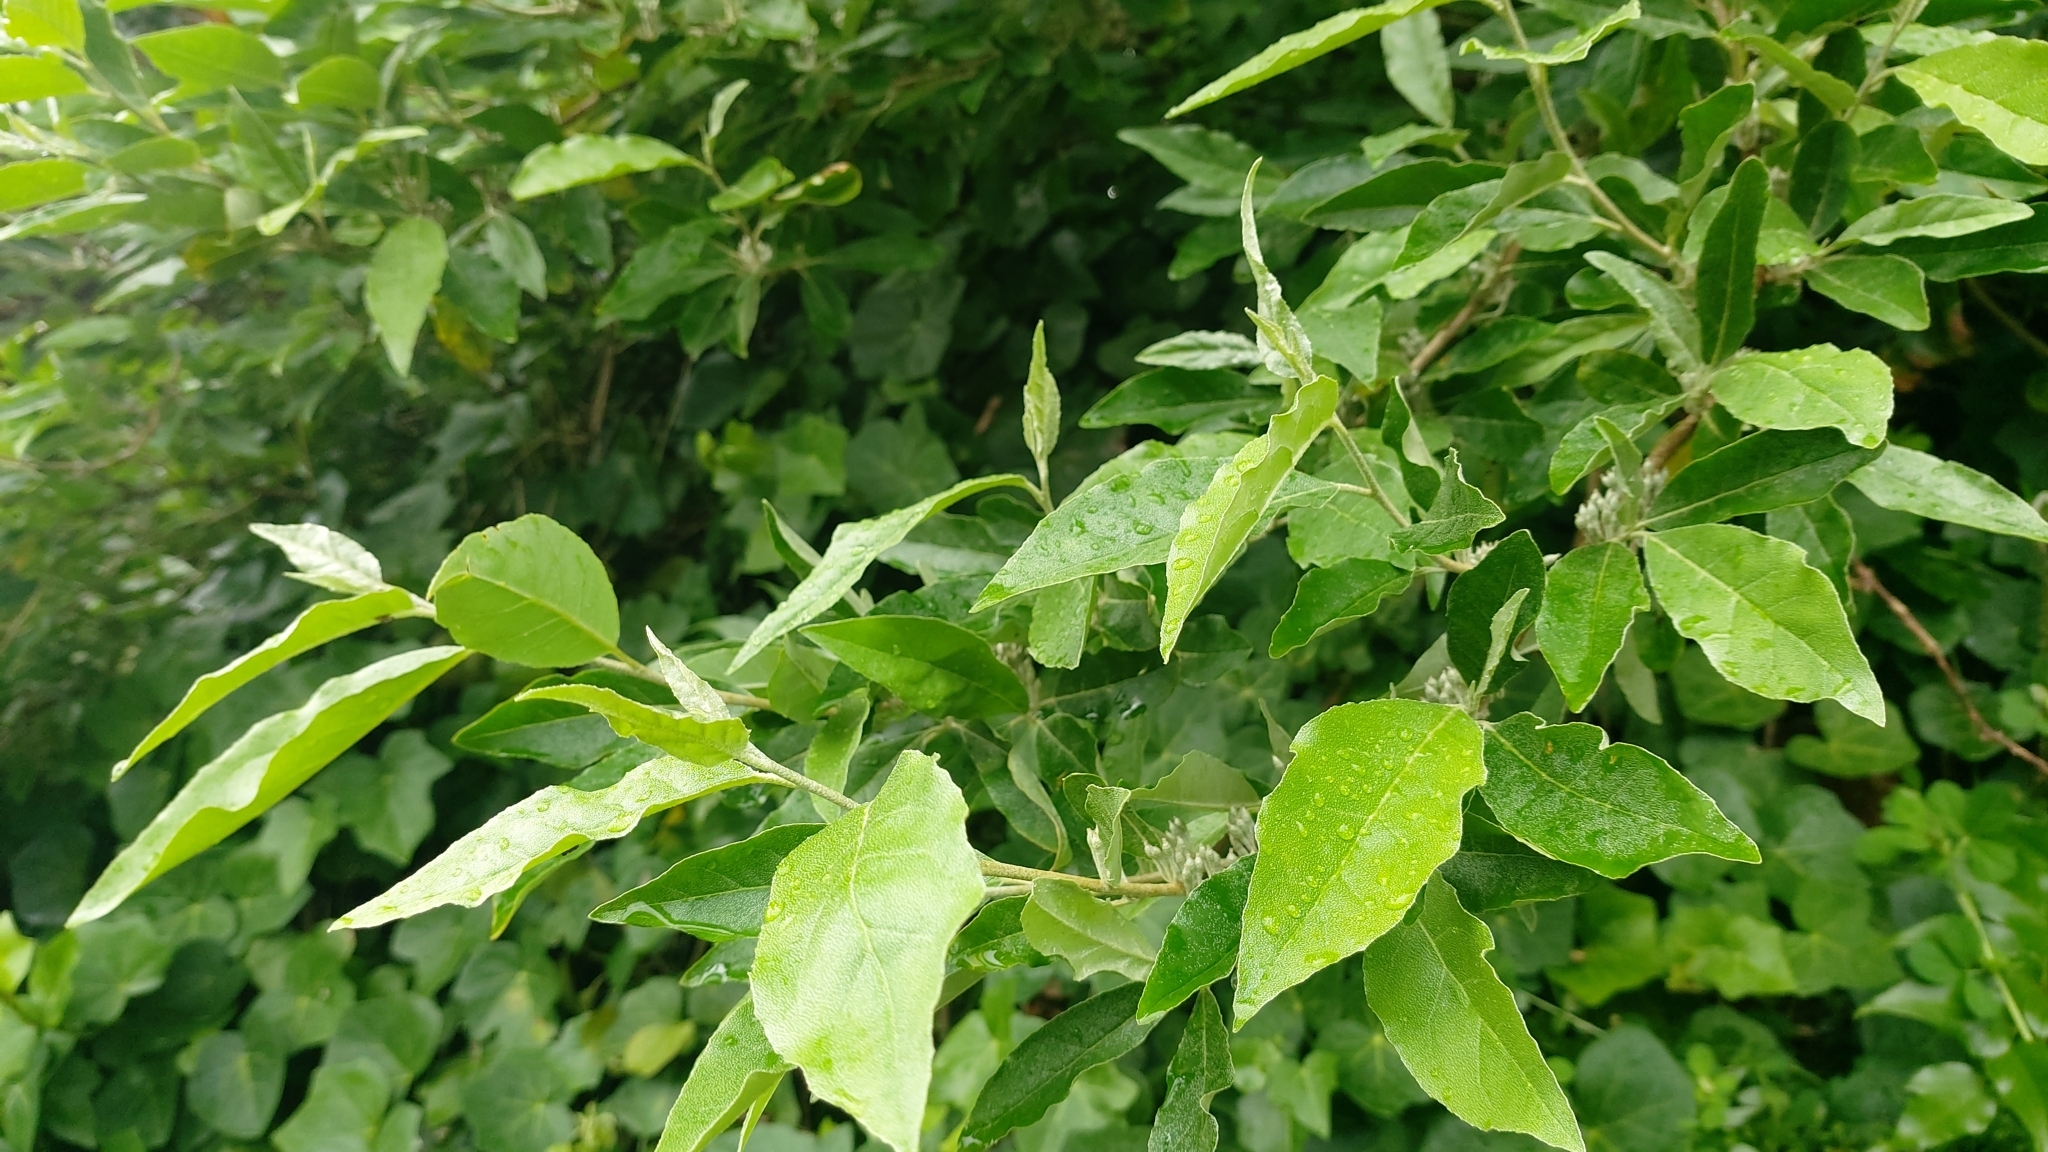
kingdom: Plantae
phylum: Tracheophyta
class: Magnoliopsida
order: Rosales
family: Elaeagnaceae
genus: Elaeagnus
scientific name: Elaeagnus umbellata
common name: Autumn olive
